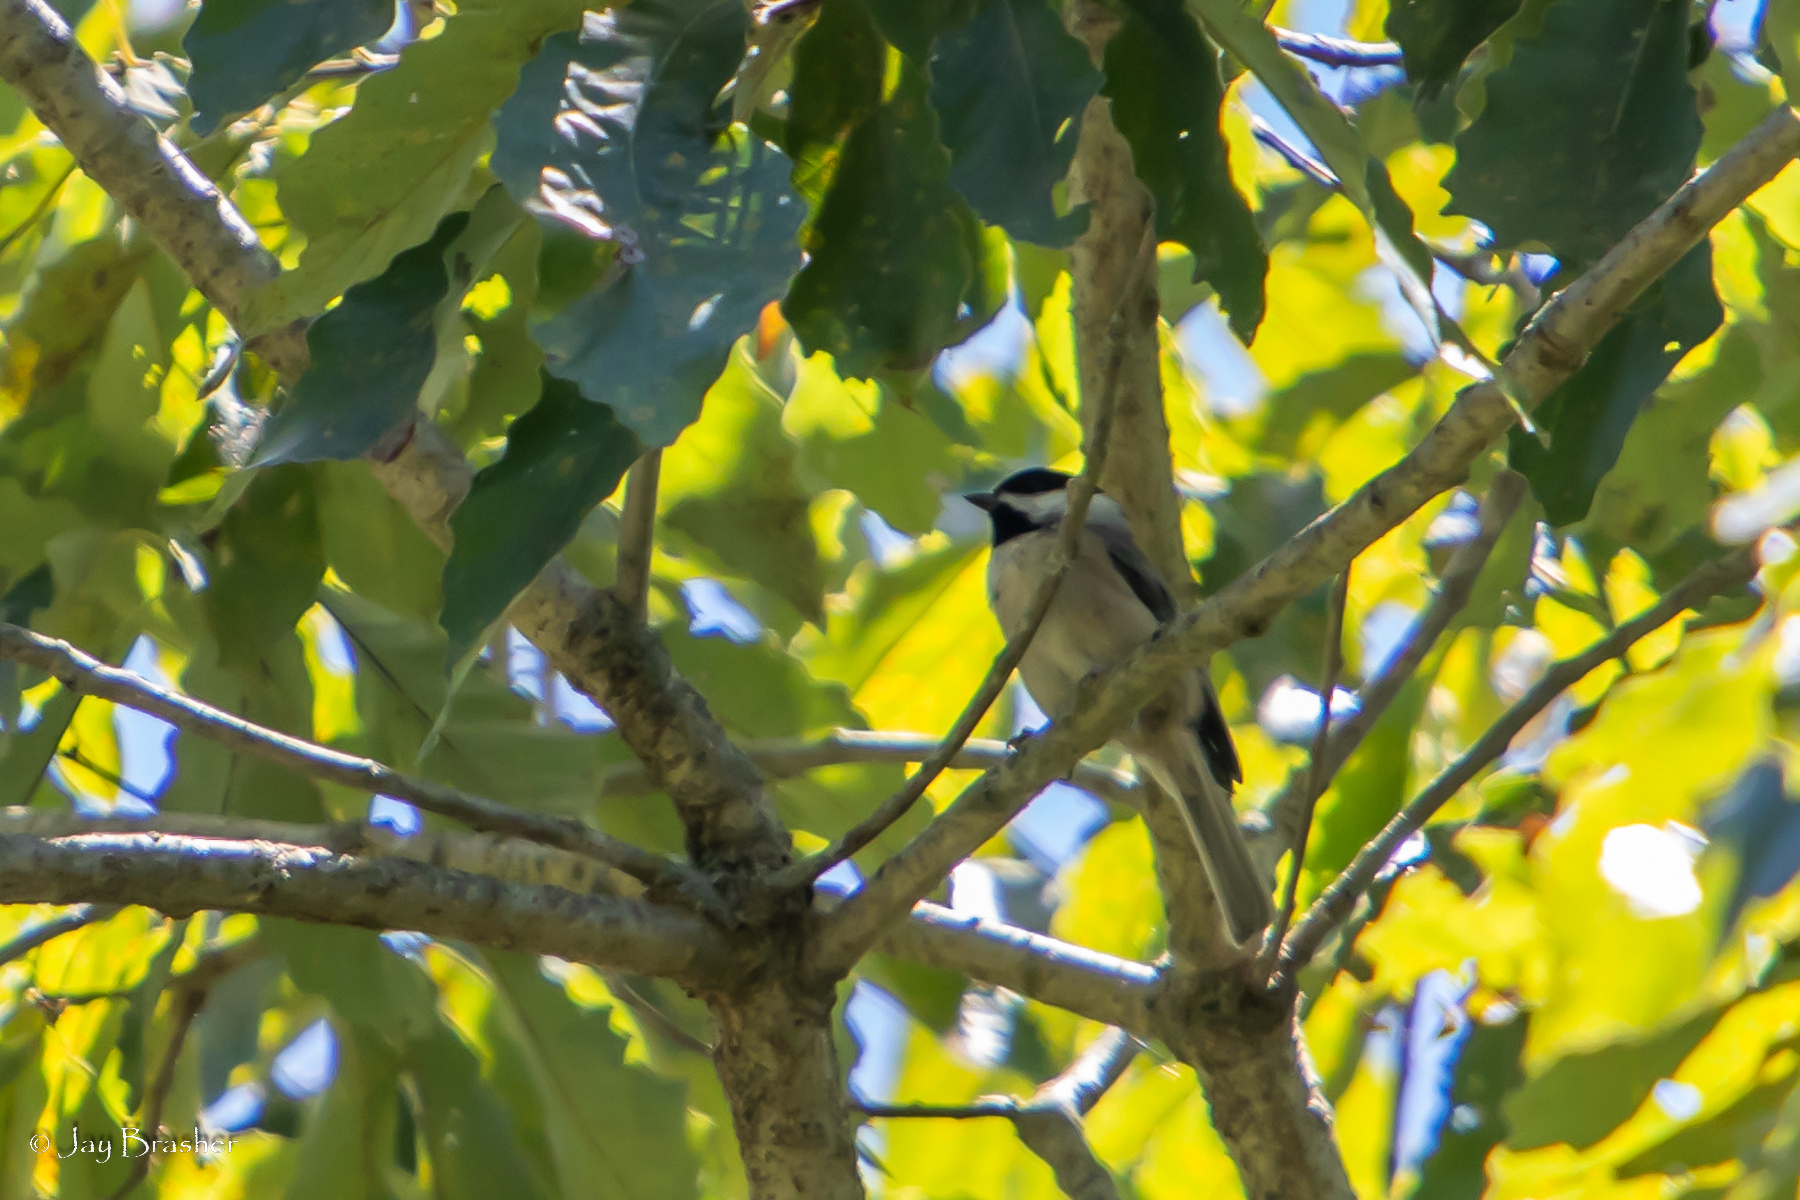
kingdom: Animalia
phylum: Chordata
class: Aves
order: Passeriformes
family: Paridae
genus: Poecile
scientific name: Poecile carolinensis
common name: Carolina chickadee
